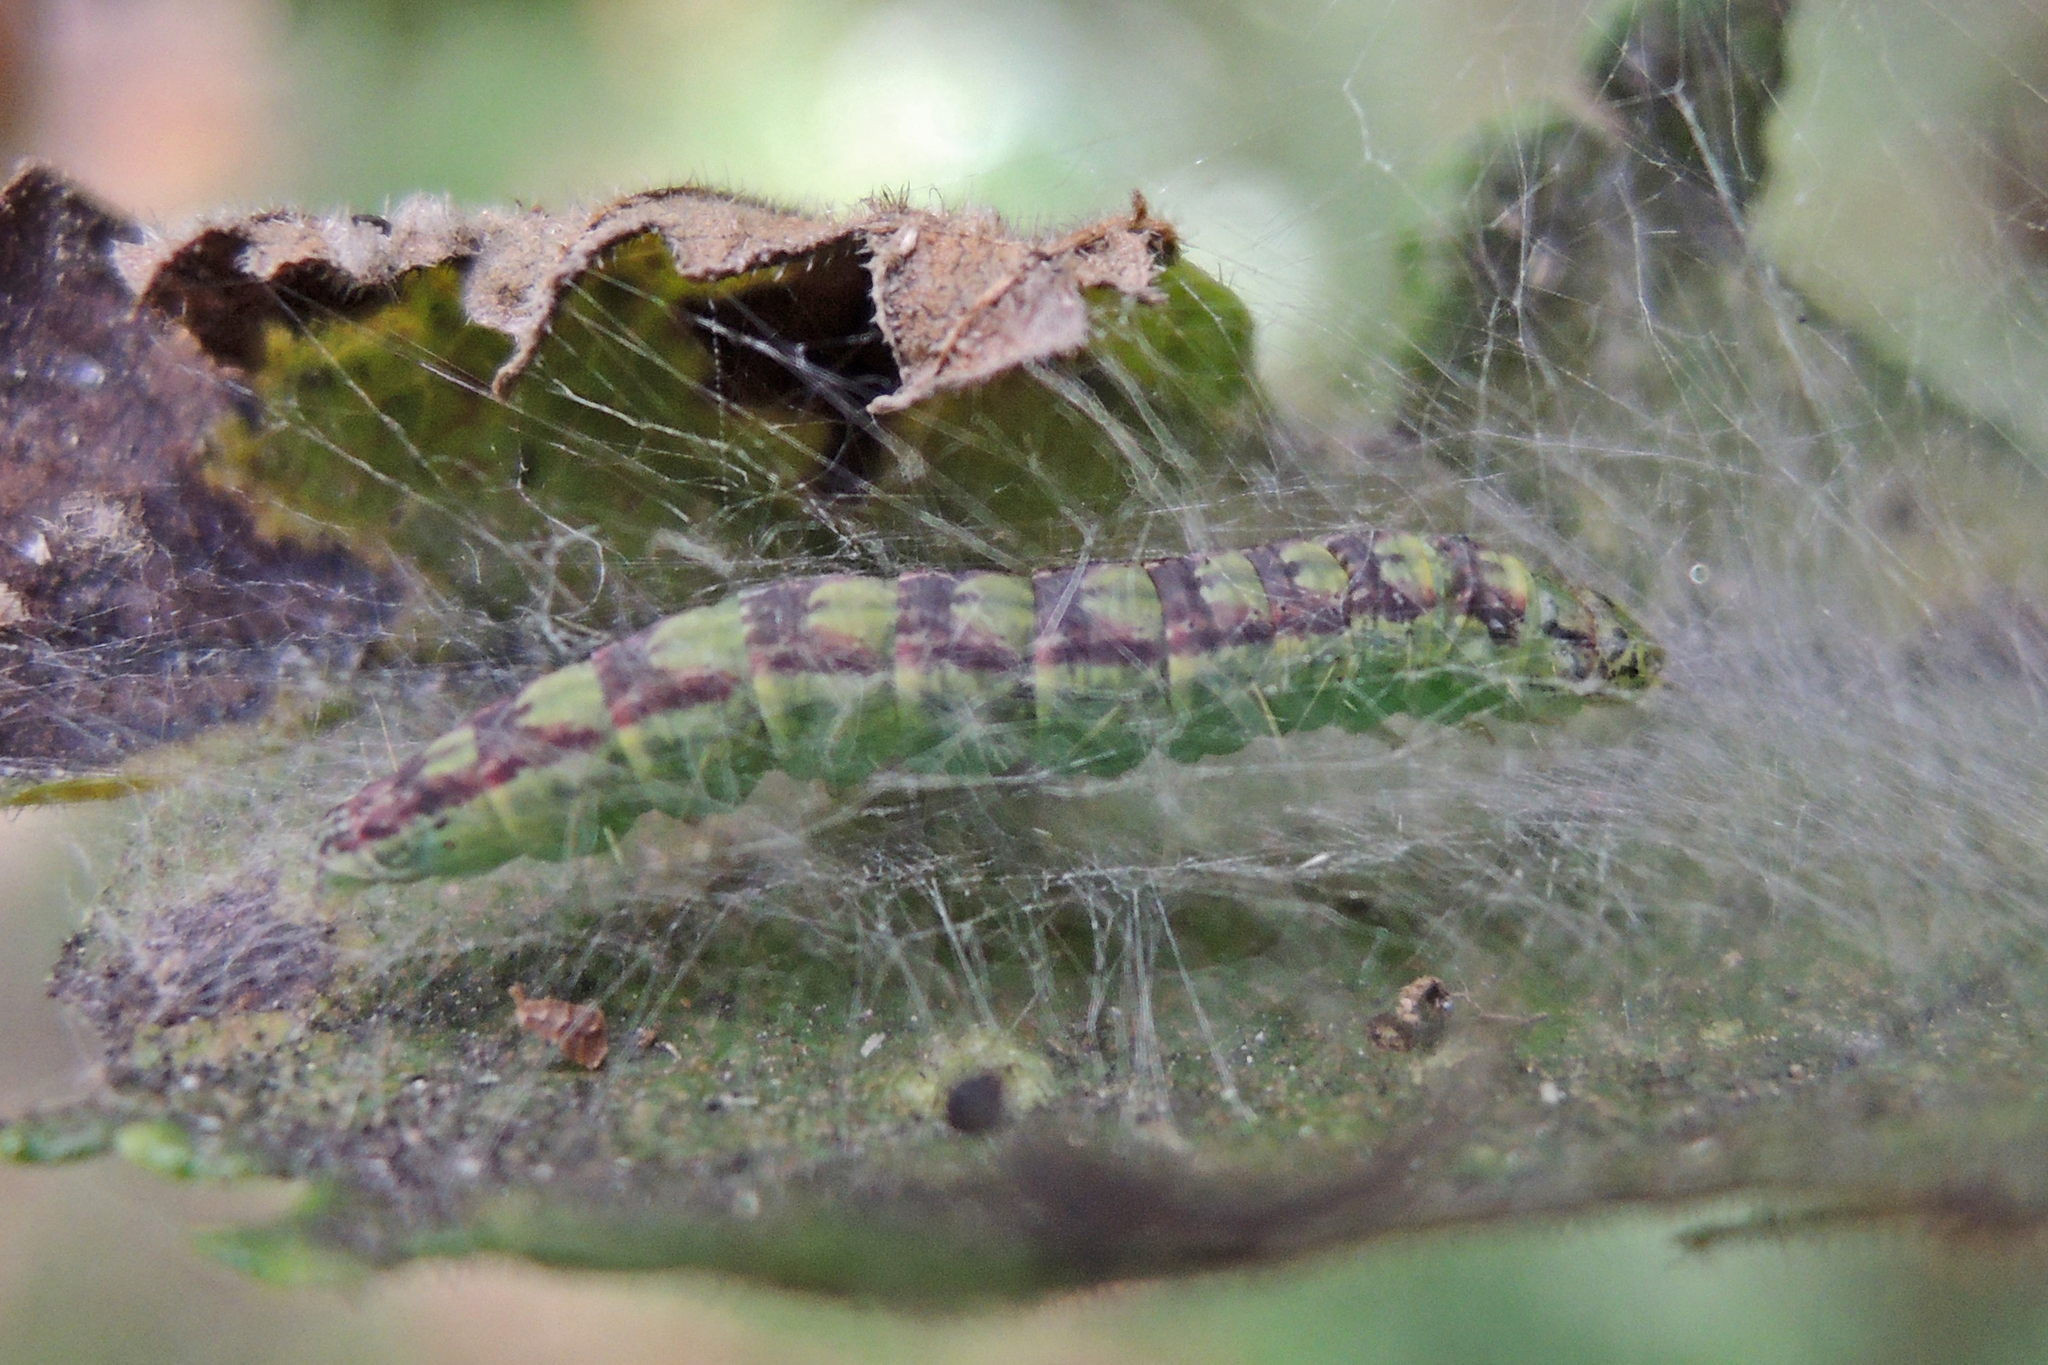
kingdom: Animalia
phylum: Arthropoda
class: Insecta
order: Lepidoptera
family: Pyralidae
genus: Oreana
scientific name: Oreana unicolorella
